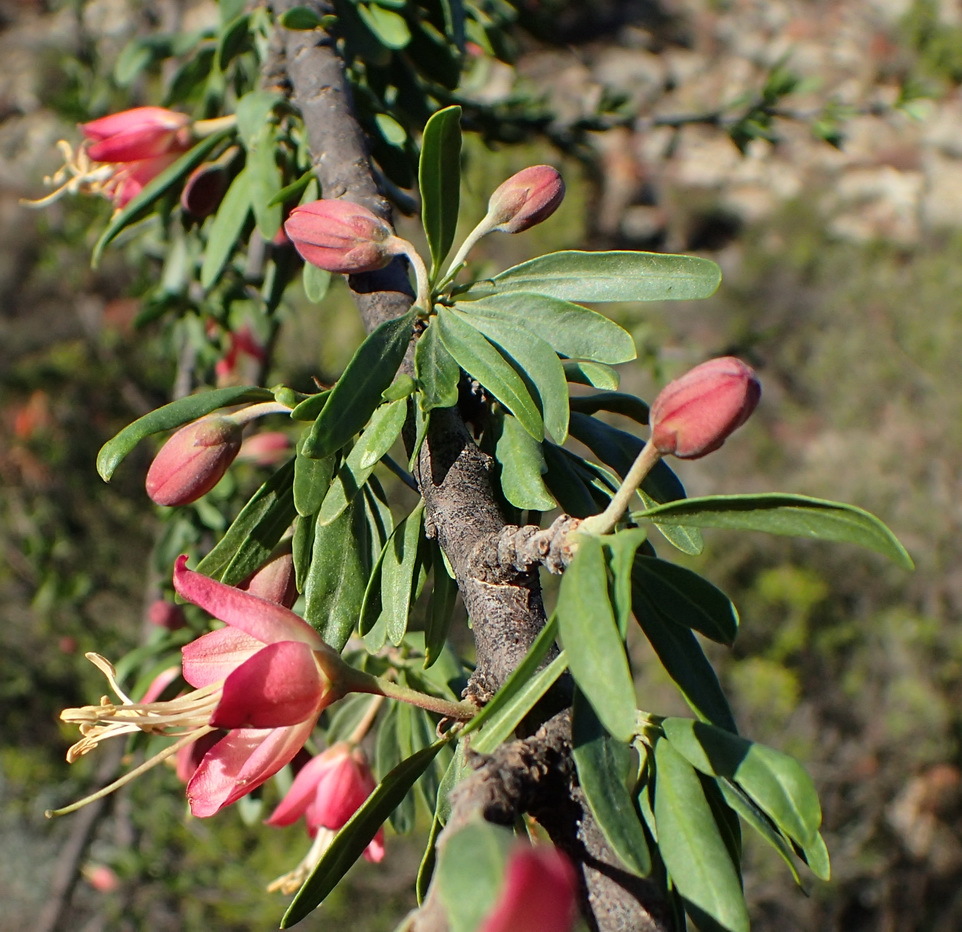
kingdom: Plantae
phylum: Tracheophyta
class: Magnoliopsida
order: Sapindales
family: Meliaceae
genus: Nymania
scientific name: Nymania capensis
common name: Chinese lantern tree
